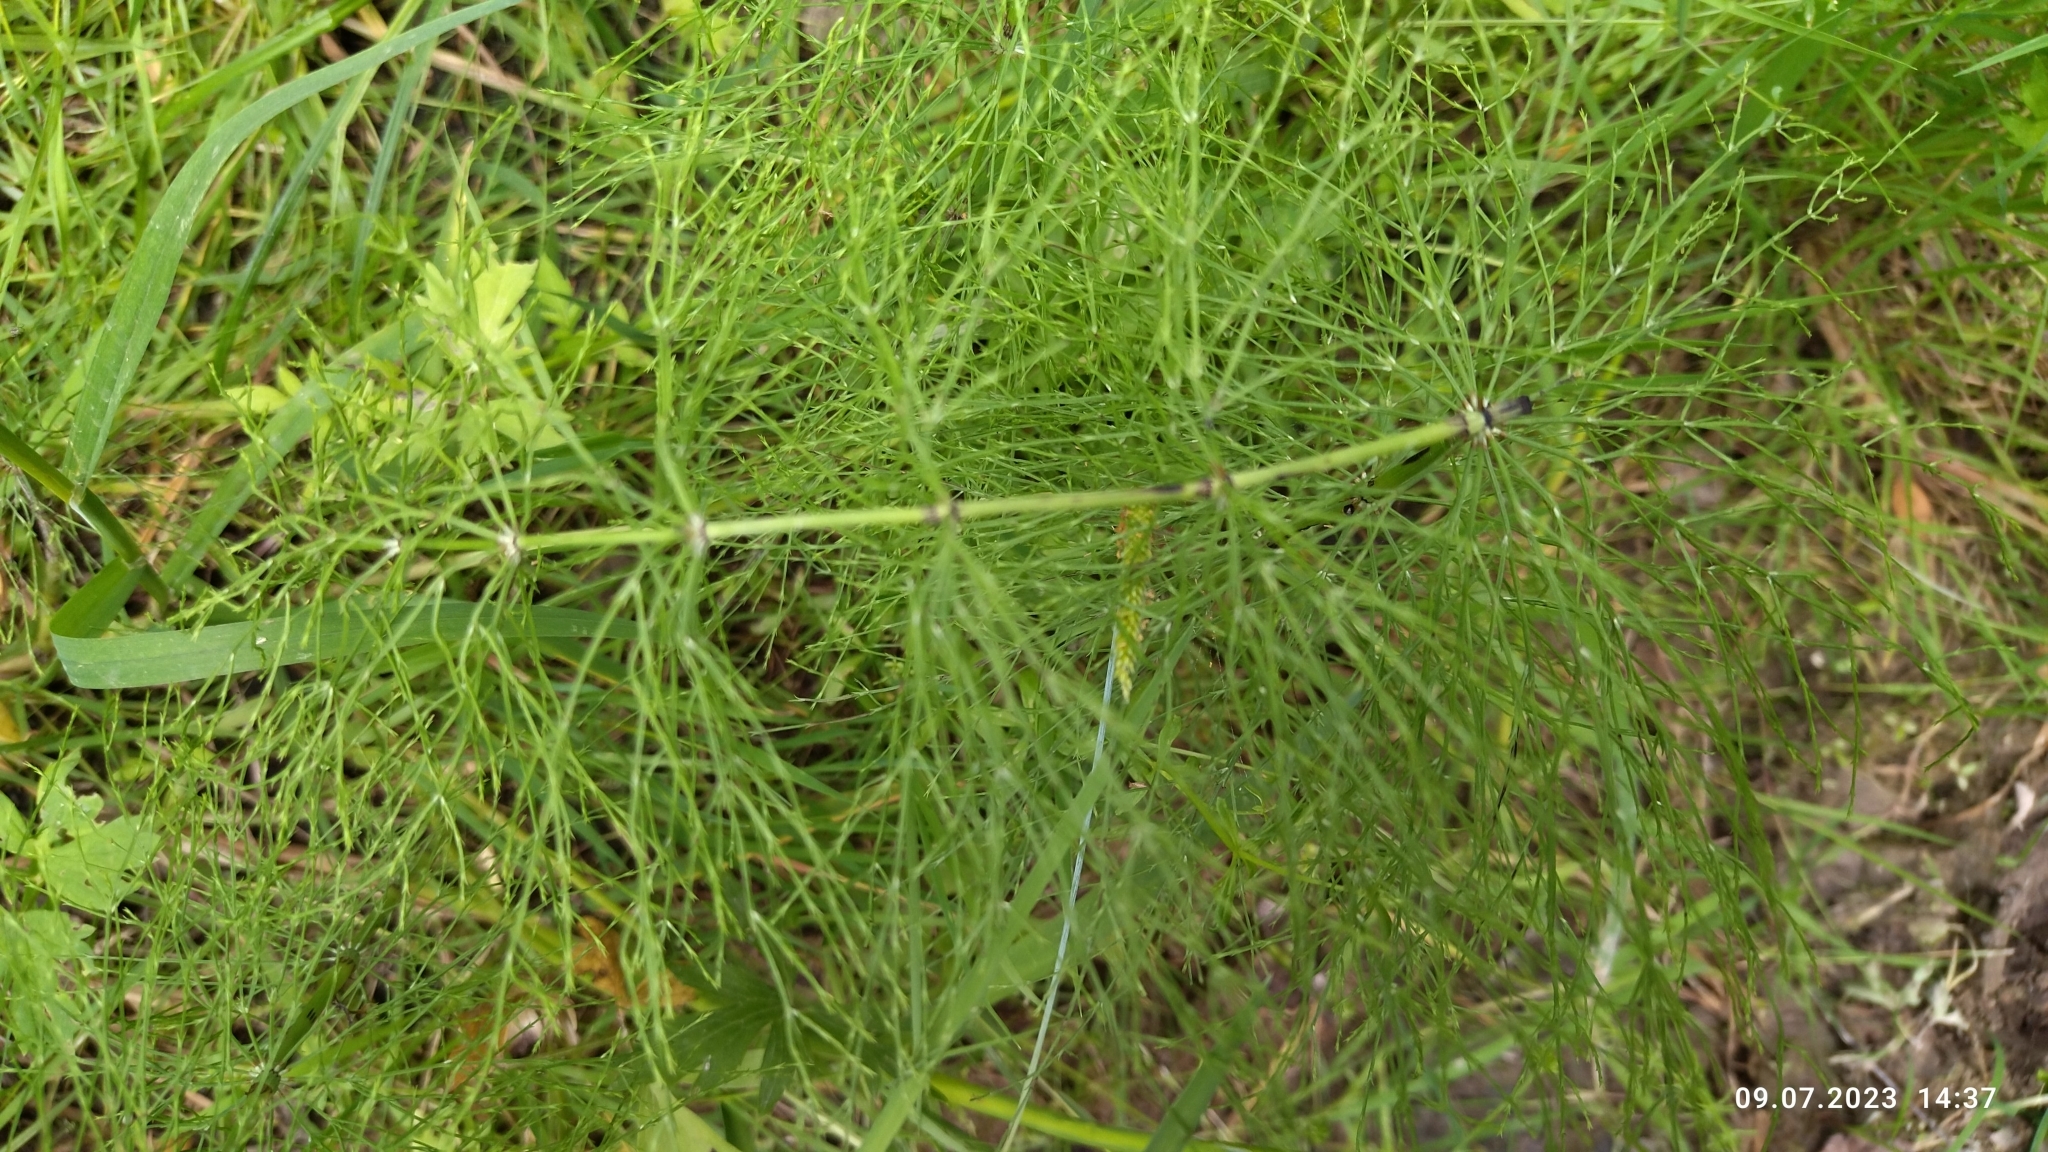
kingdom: Plantae
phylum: Tracheophyta
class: Polypodiopsida
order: Equisetales
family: Equisetaceae
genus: Equisetum
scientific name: Equisetum sylvaticum
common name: Wood horsetail
